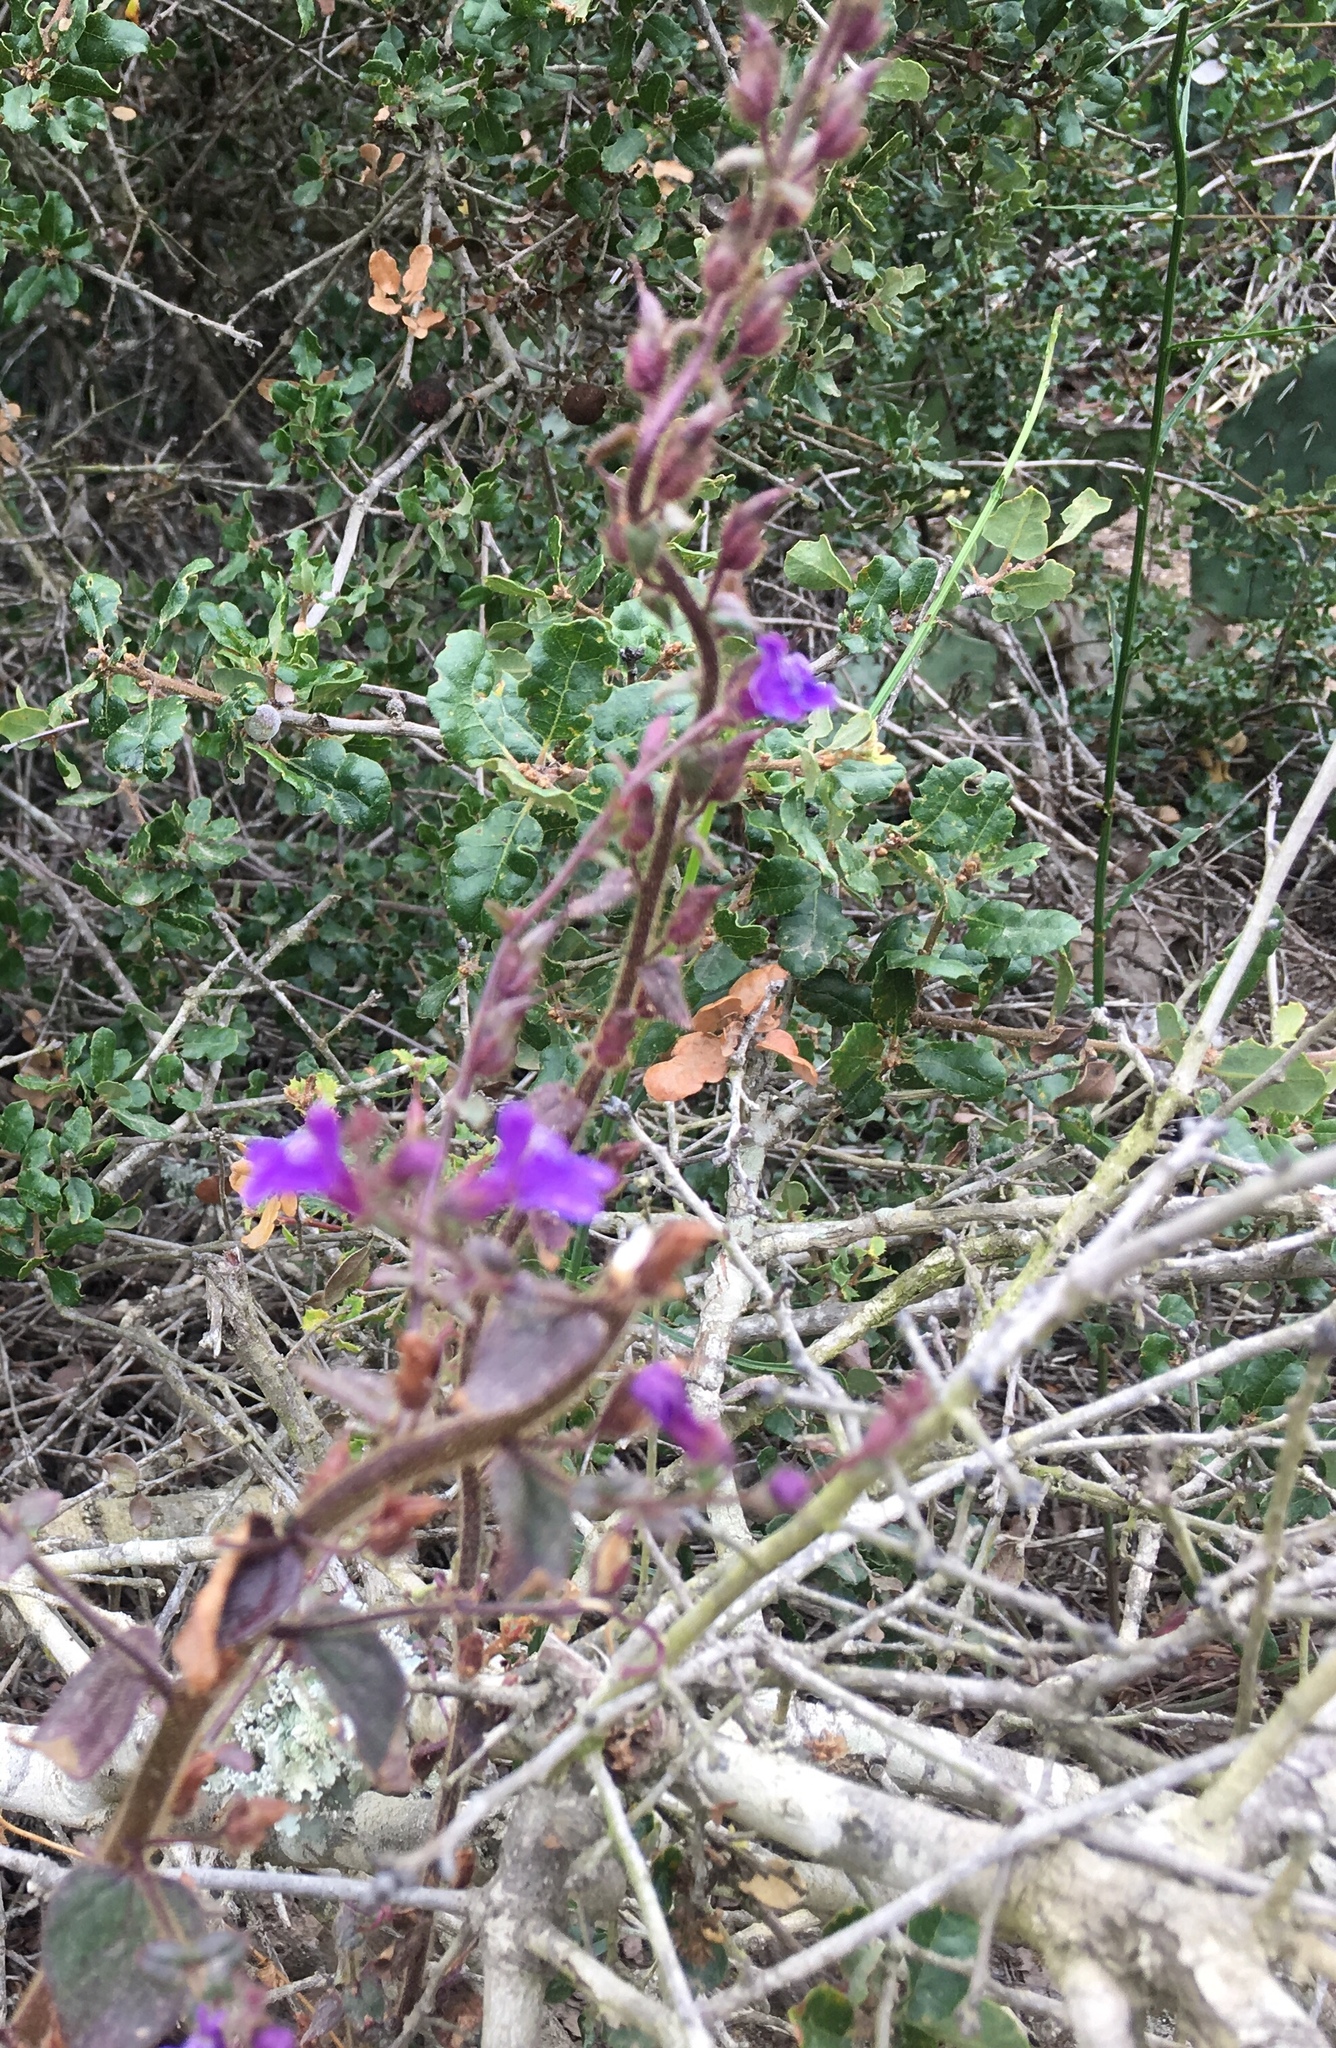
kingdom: Plantae
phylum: Tracheophyta
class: Magnoliopsida
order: Lamiales
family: Plantaginaceae
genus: Sairocarpus
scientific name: Sairocarpus nuttallianus
